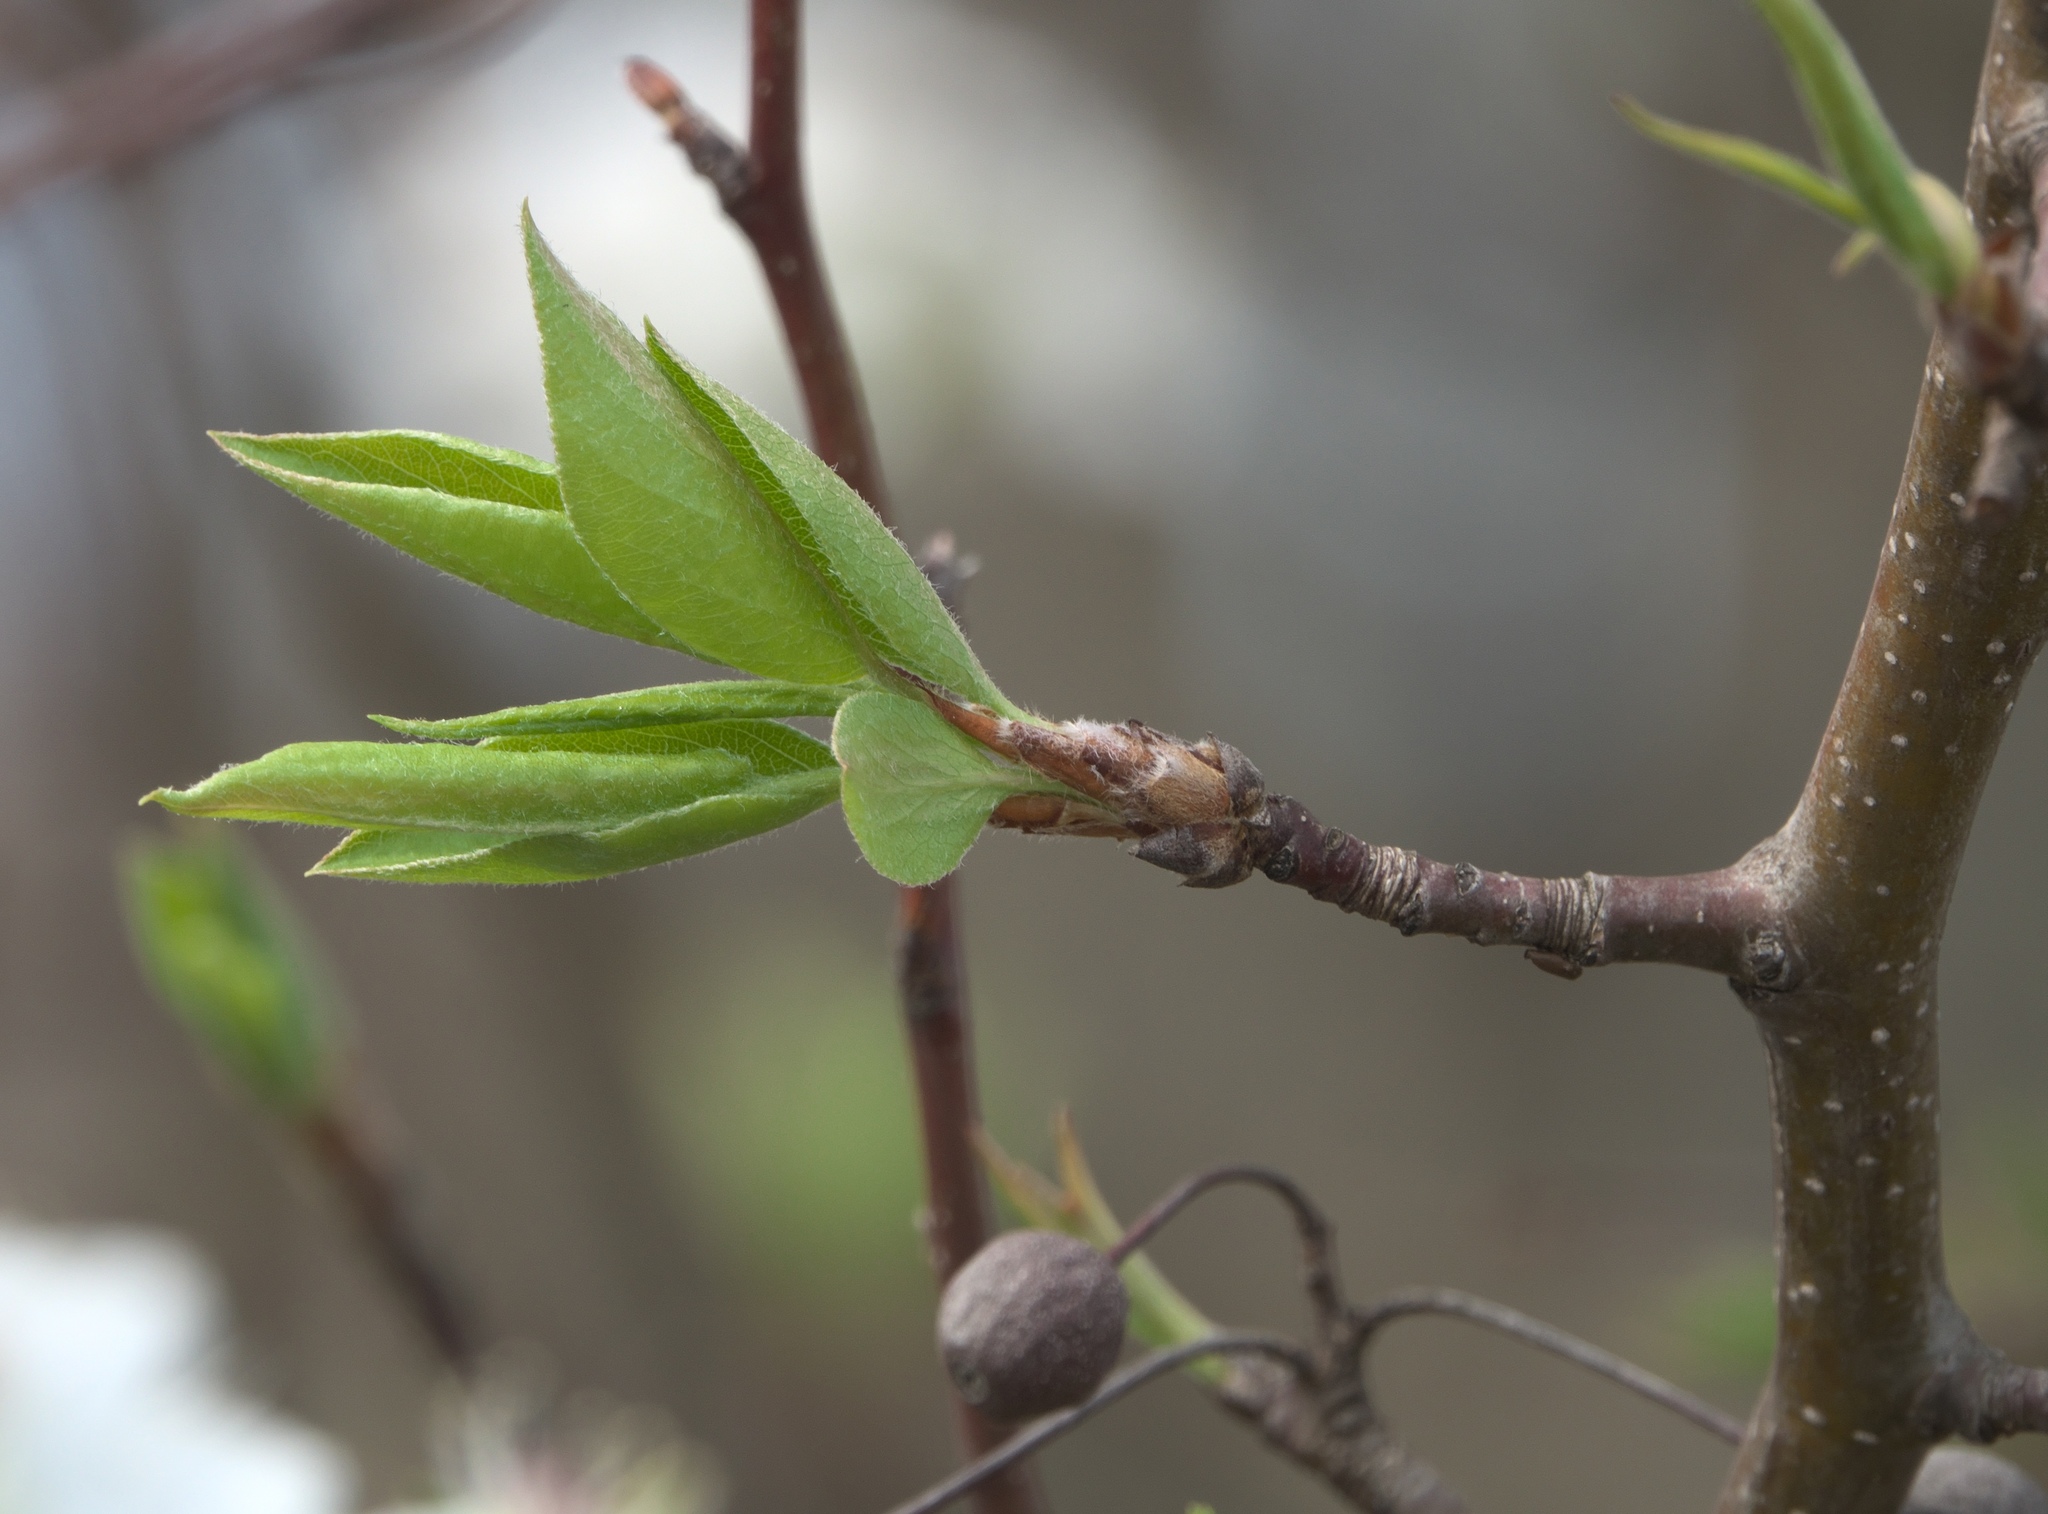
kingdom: Plantae
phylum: Tracheophyta
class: Magnoliopsida
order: Rosales
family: Rosaceae
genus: Pyrus
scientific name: Pyrus calleryana
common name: Callery pear
